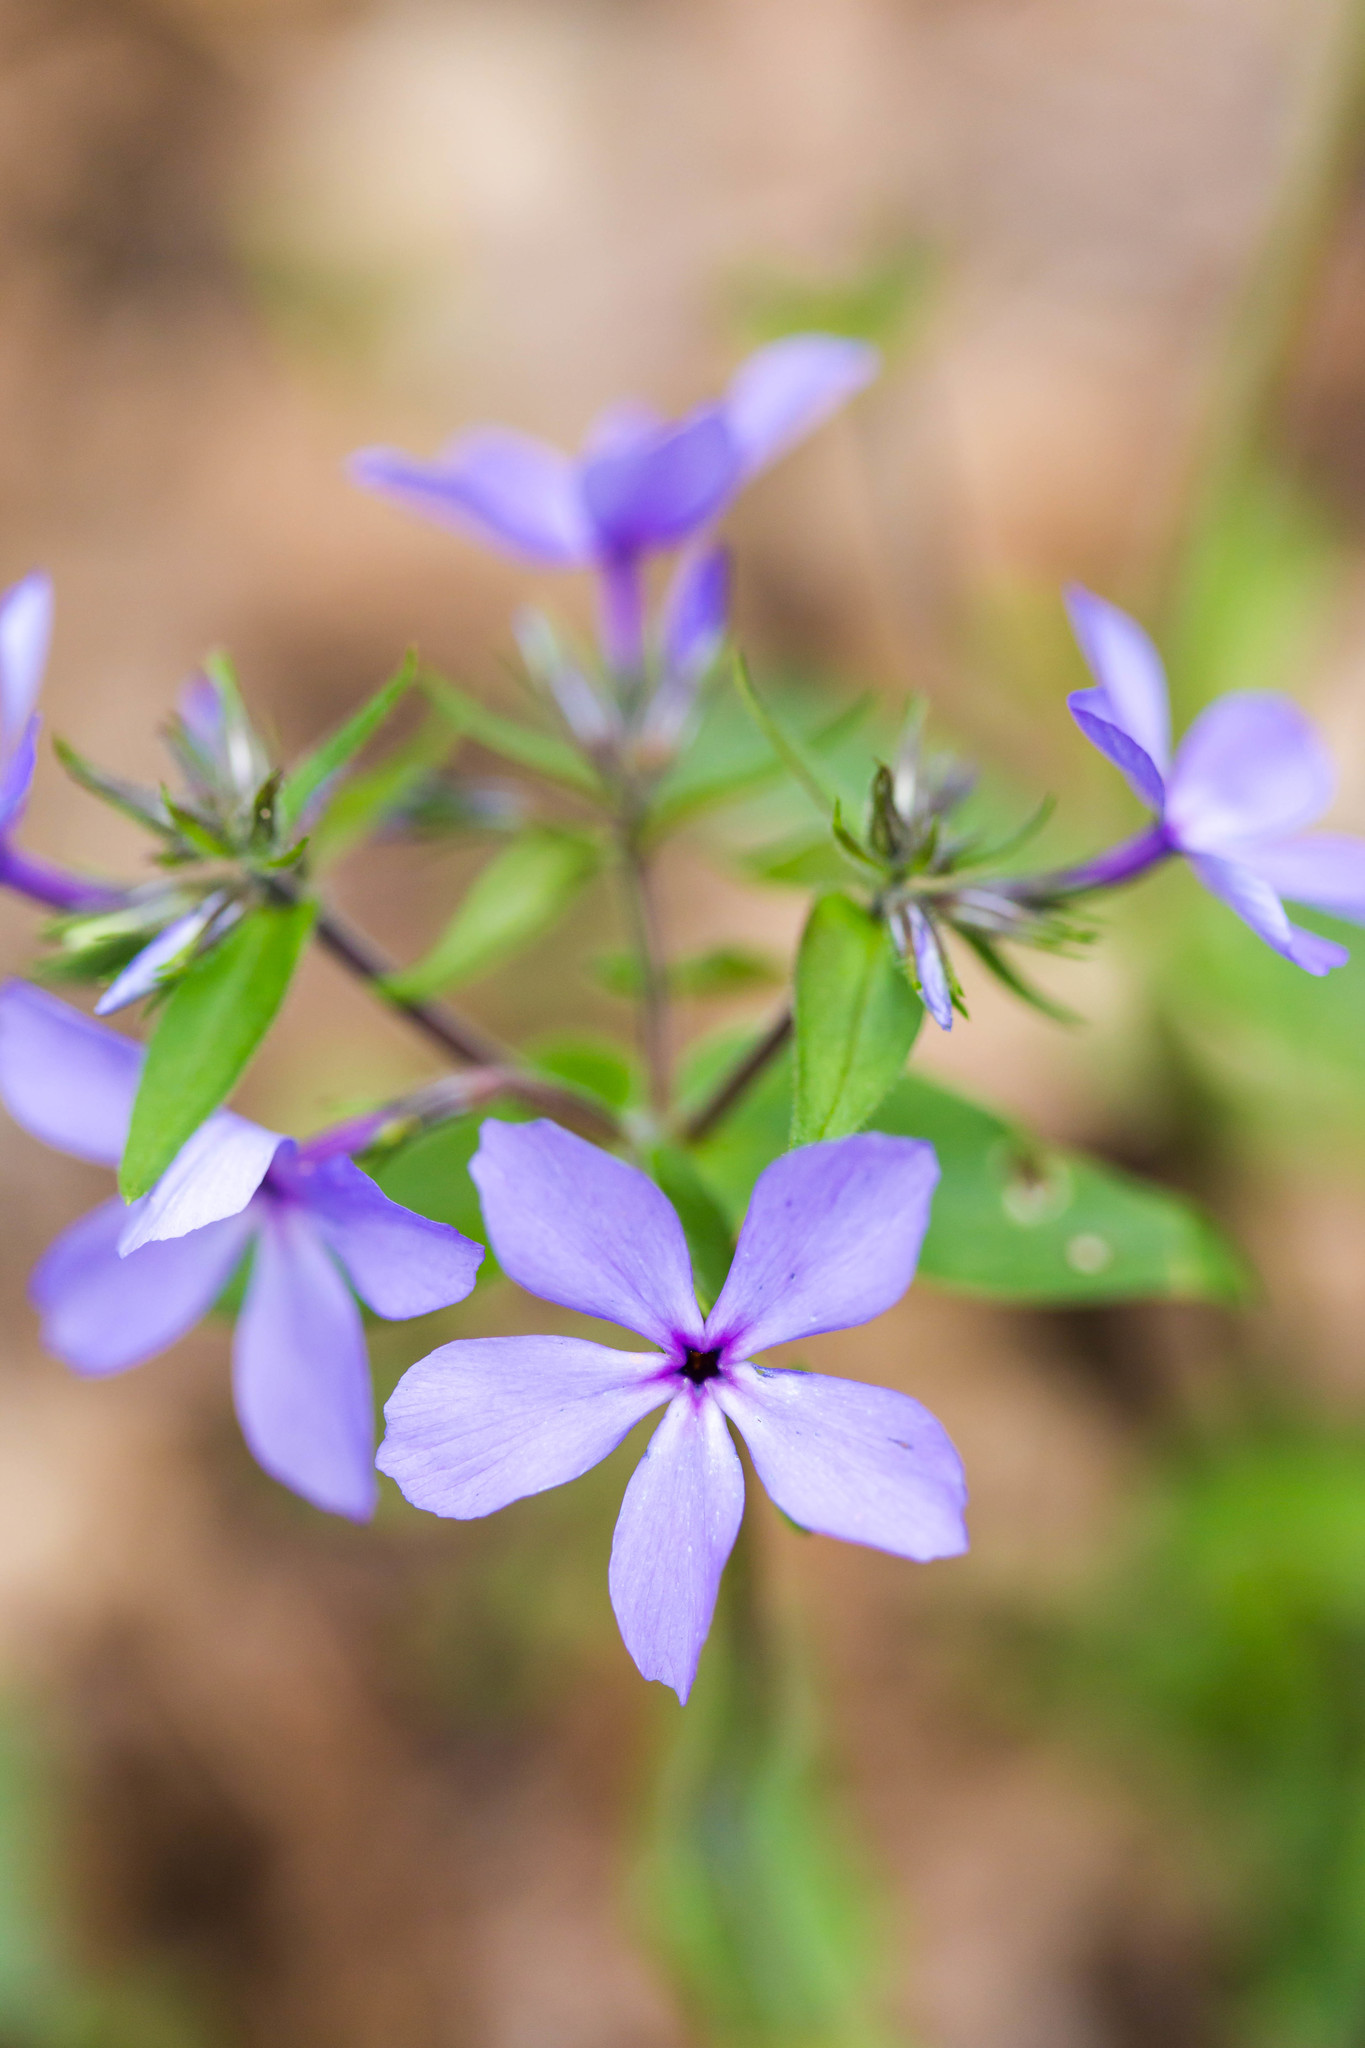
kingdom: Plantae
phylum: Tracheophyta
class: Magnoliopsida
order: Ericales
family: Polemoniaceae
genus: Phlox
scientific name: Phlox divaricata
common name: Blue phlox
